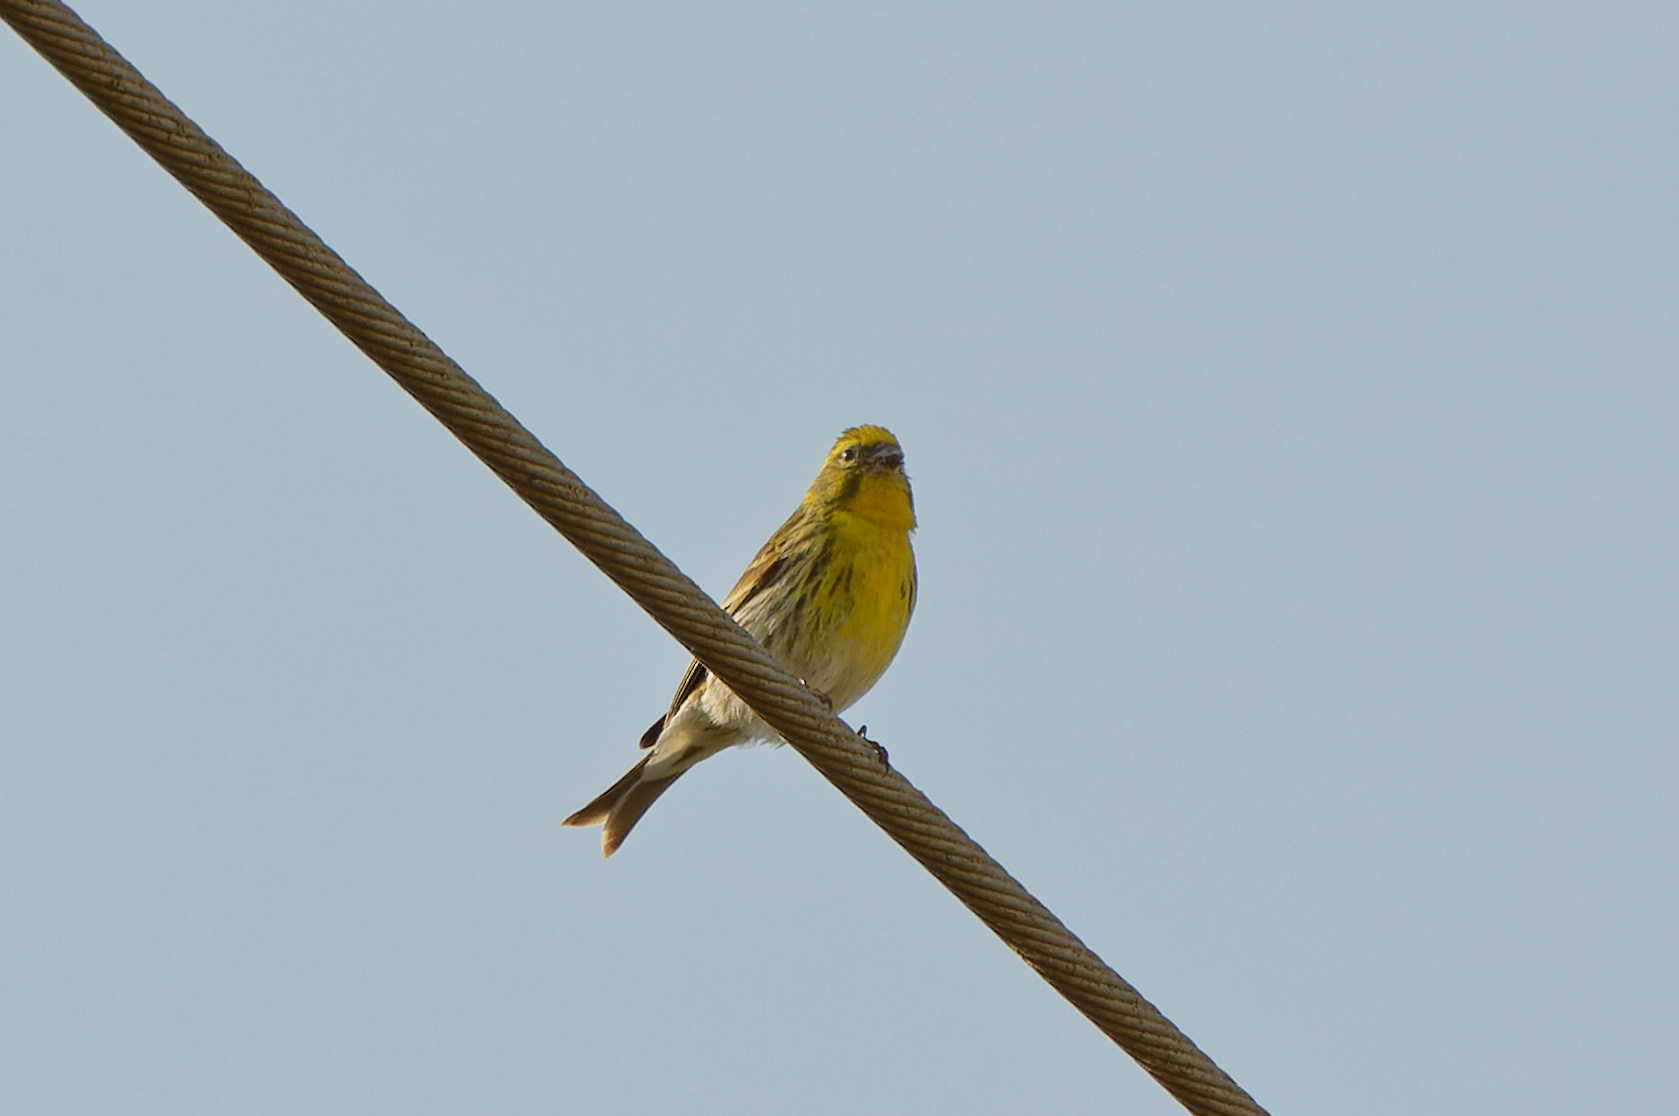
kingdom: Animalia
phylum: Chordata
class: Aves
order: Passeriformes
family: Fringillidae
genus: Serinus
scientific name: Serinus serinus
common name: European serin
